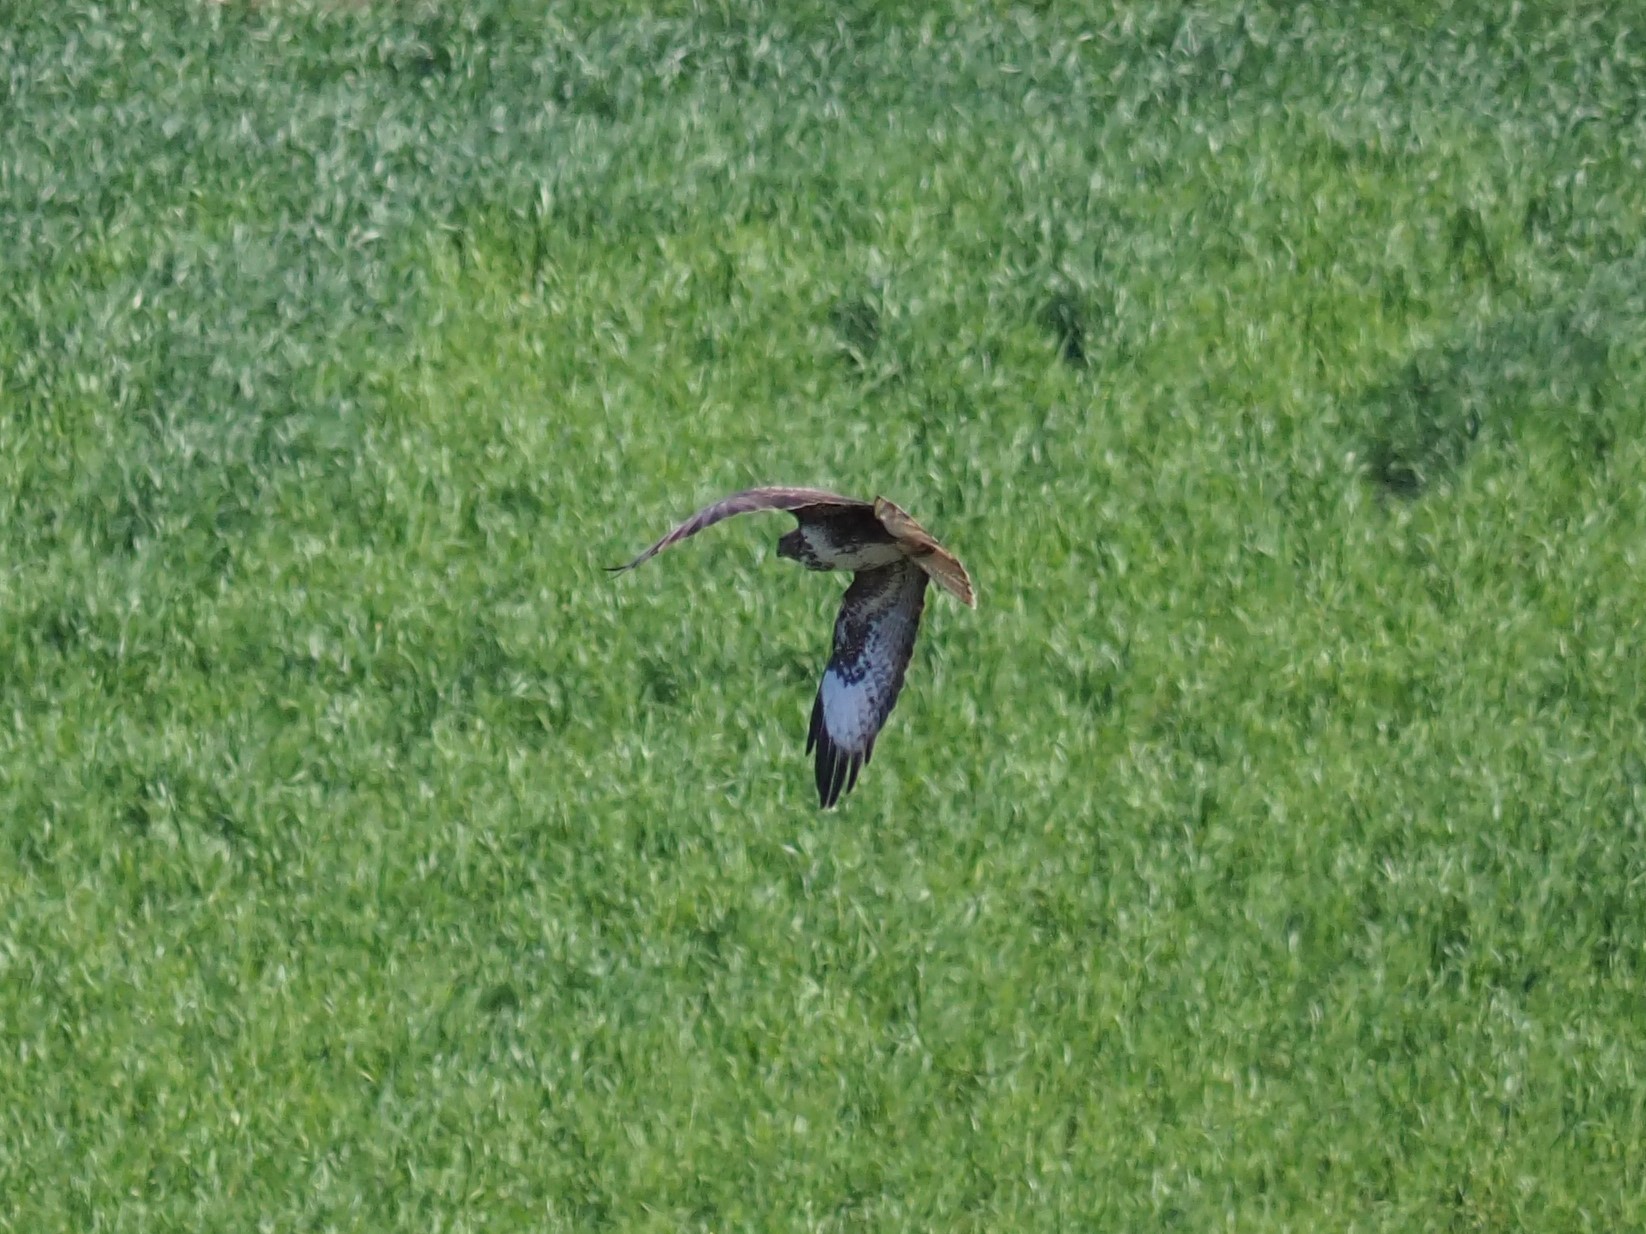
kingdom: Animalia
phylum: Chordata
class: Aves
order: Accipitriformes
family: Accipitridae
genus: Buteo
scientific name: Buteo buteo
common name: Common buzzard
